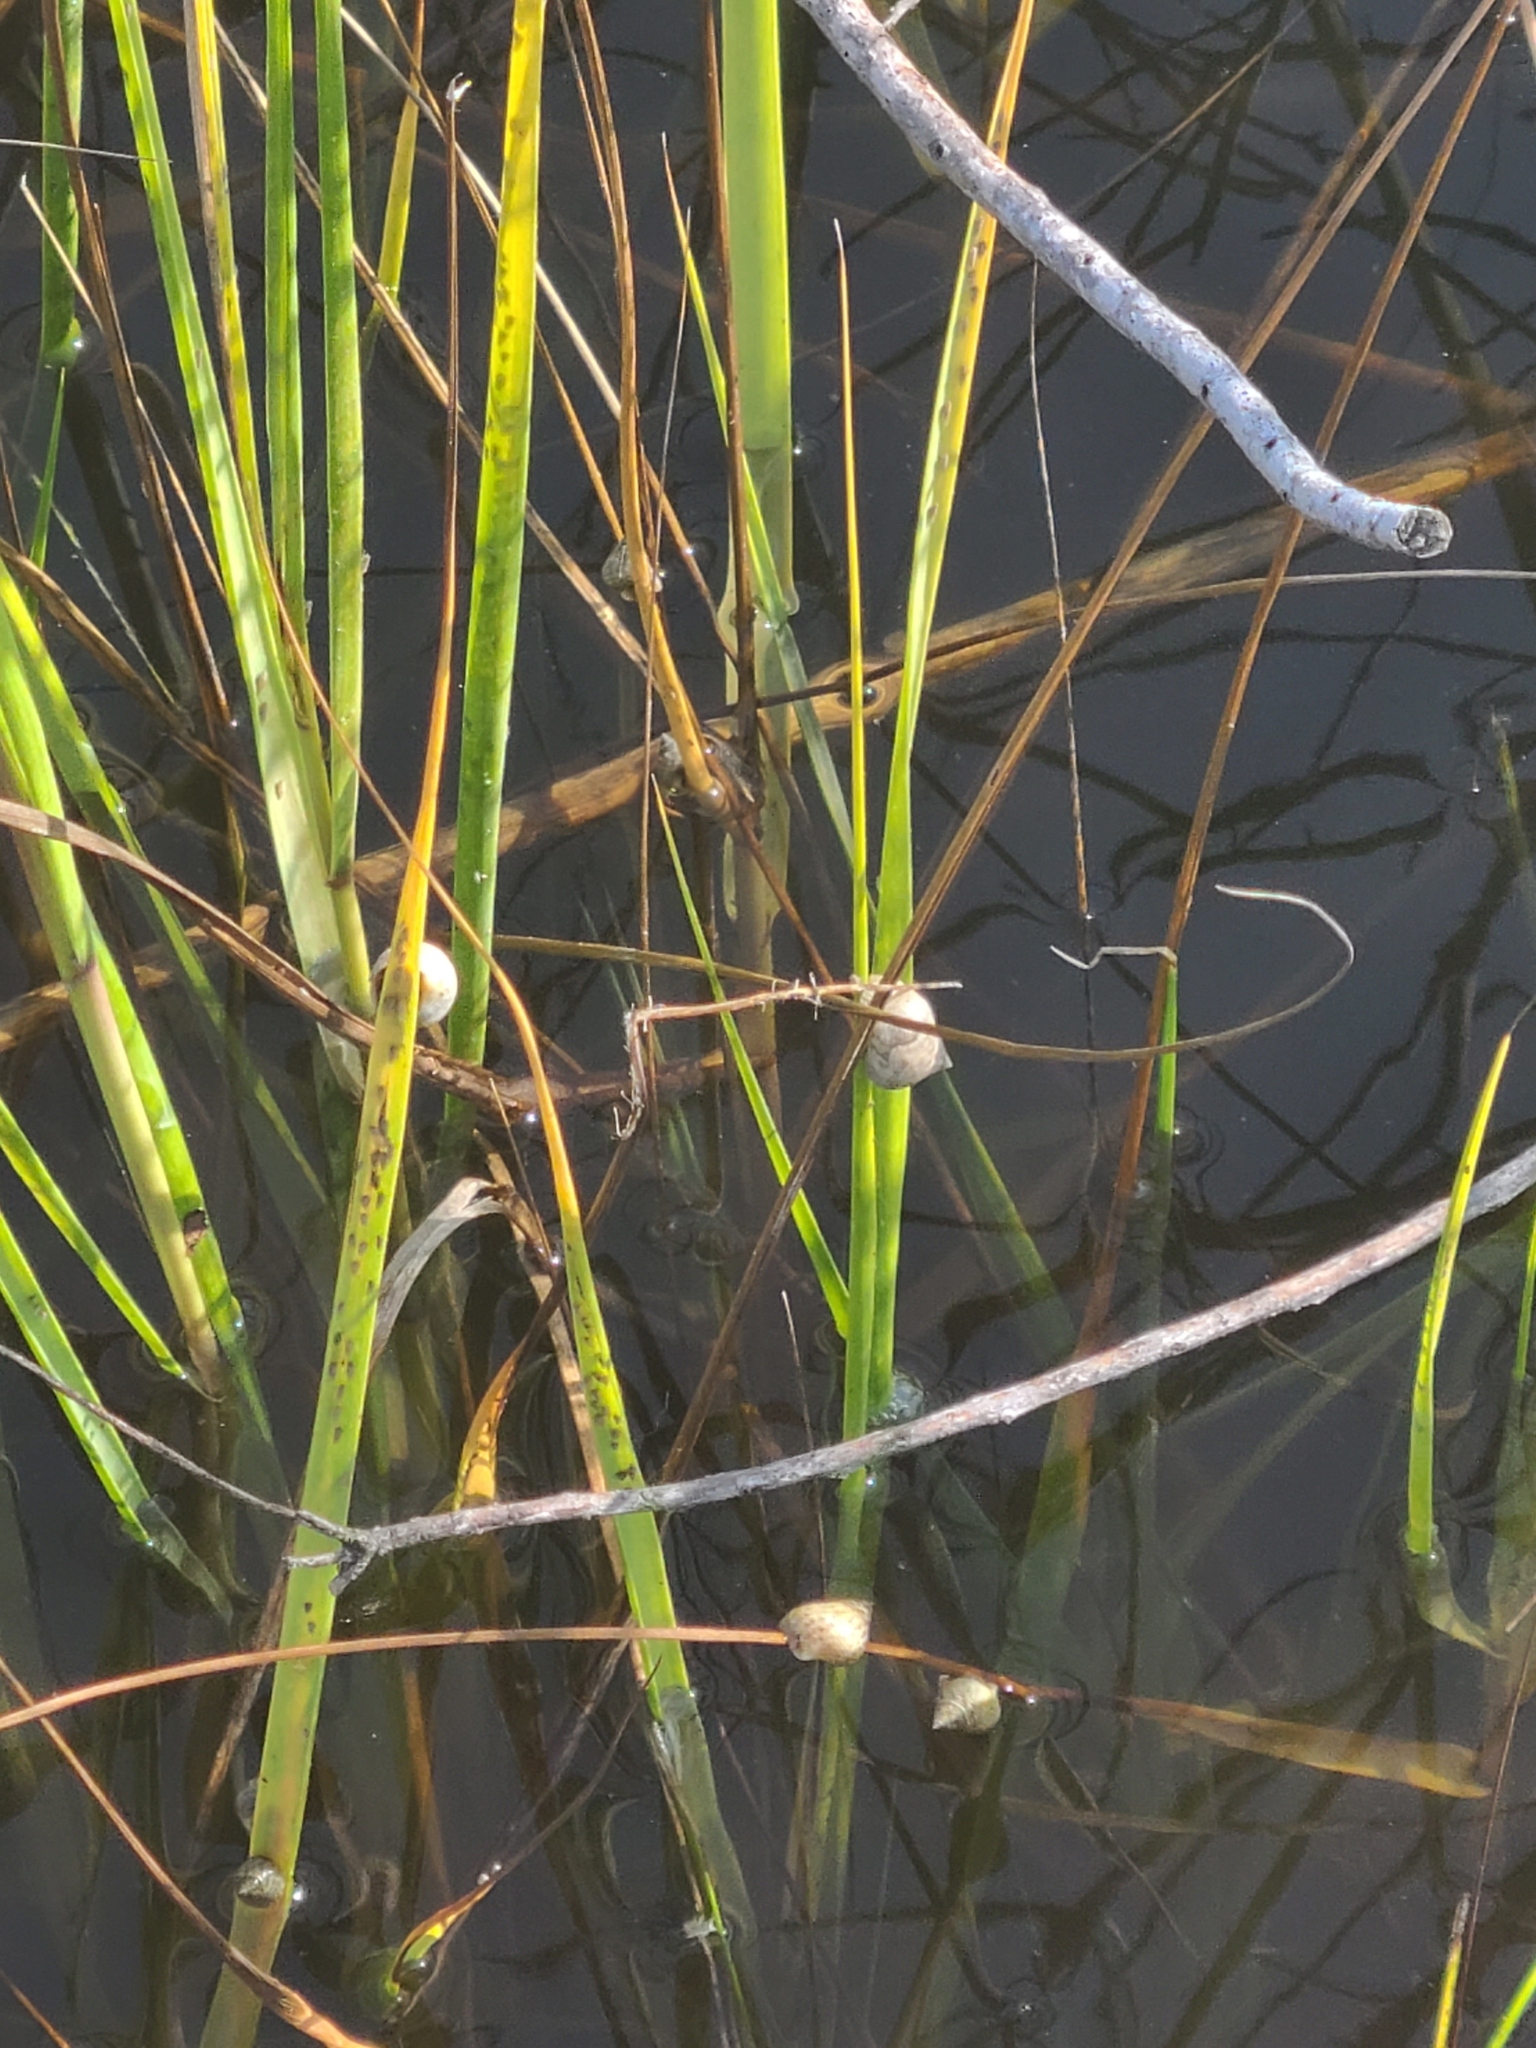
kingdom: Animalia
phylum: Mollusca
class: Gastropoda
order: Littorinimorpha
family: Littorinidae
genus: Littoraria
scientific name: Littoraria irrorata
